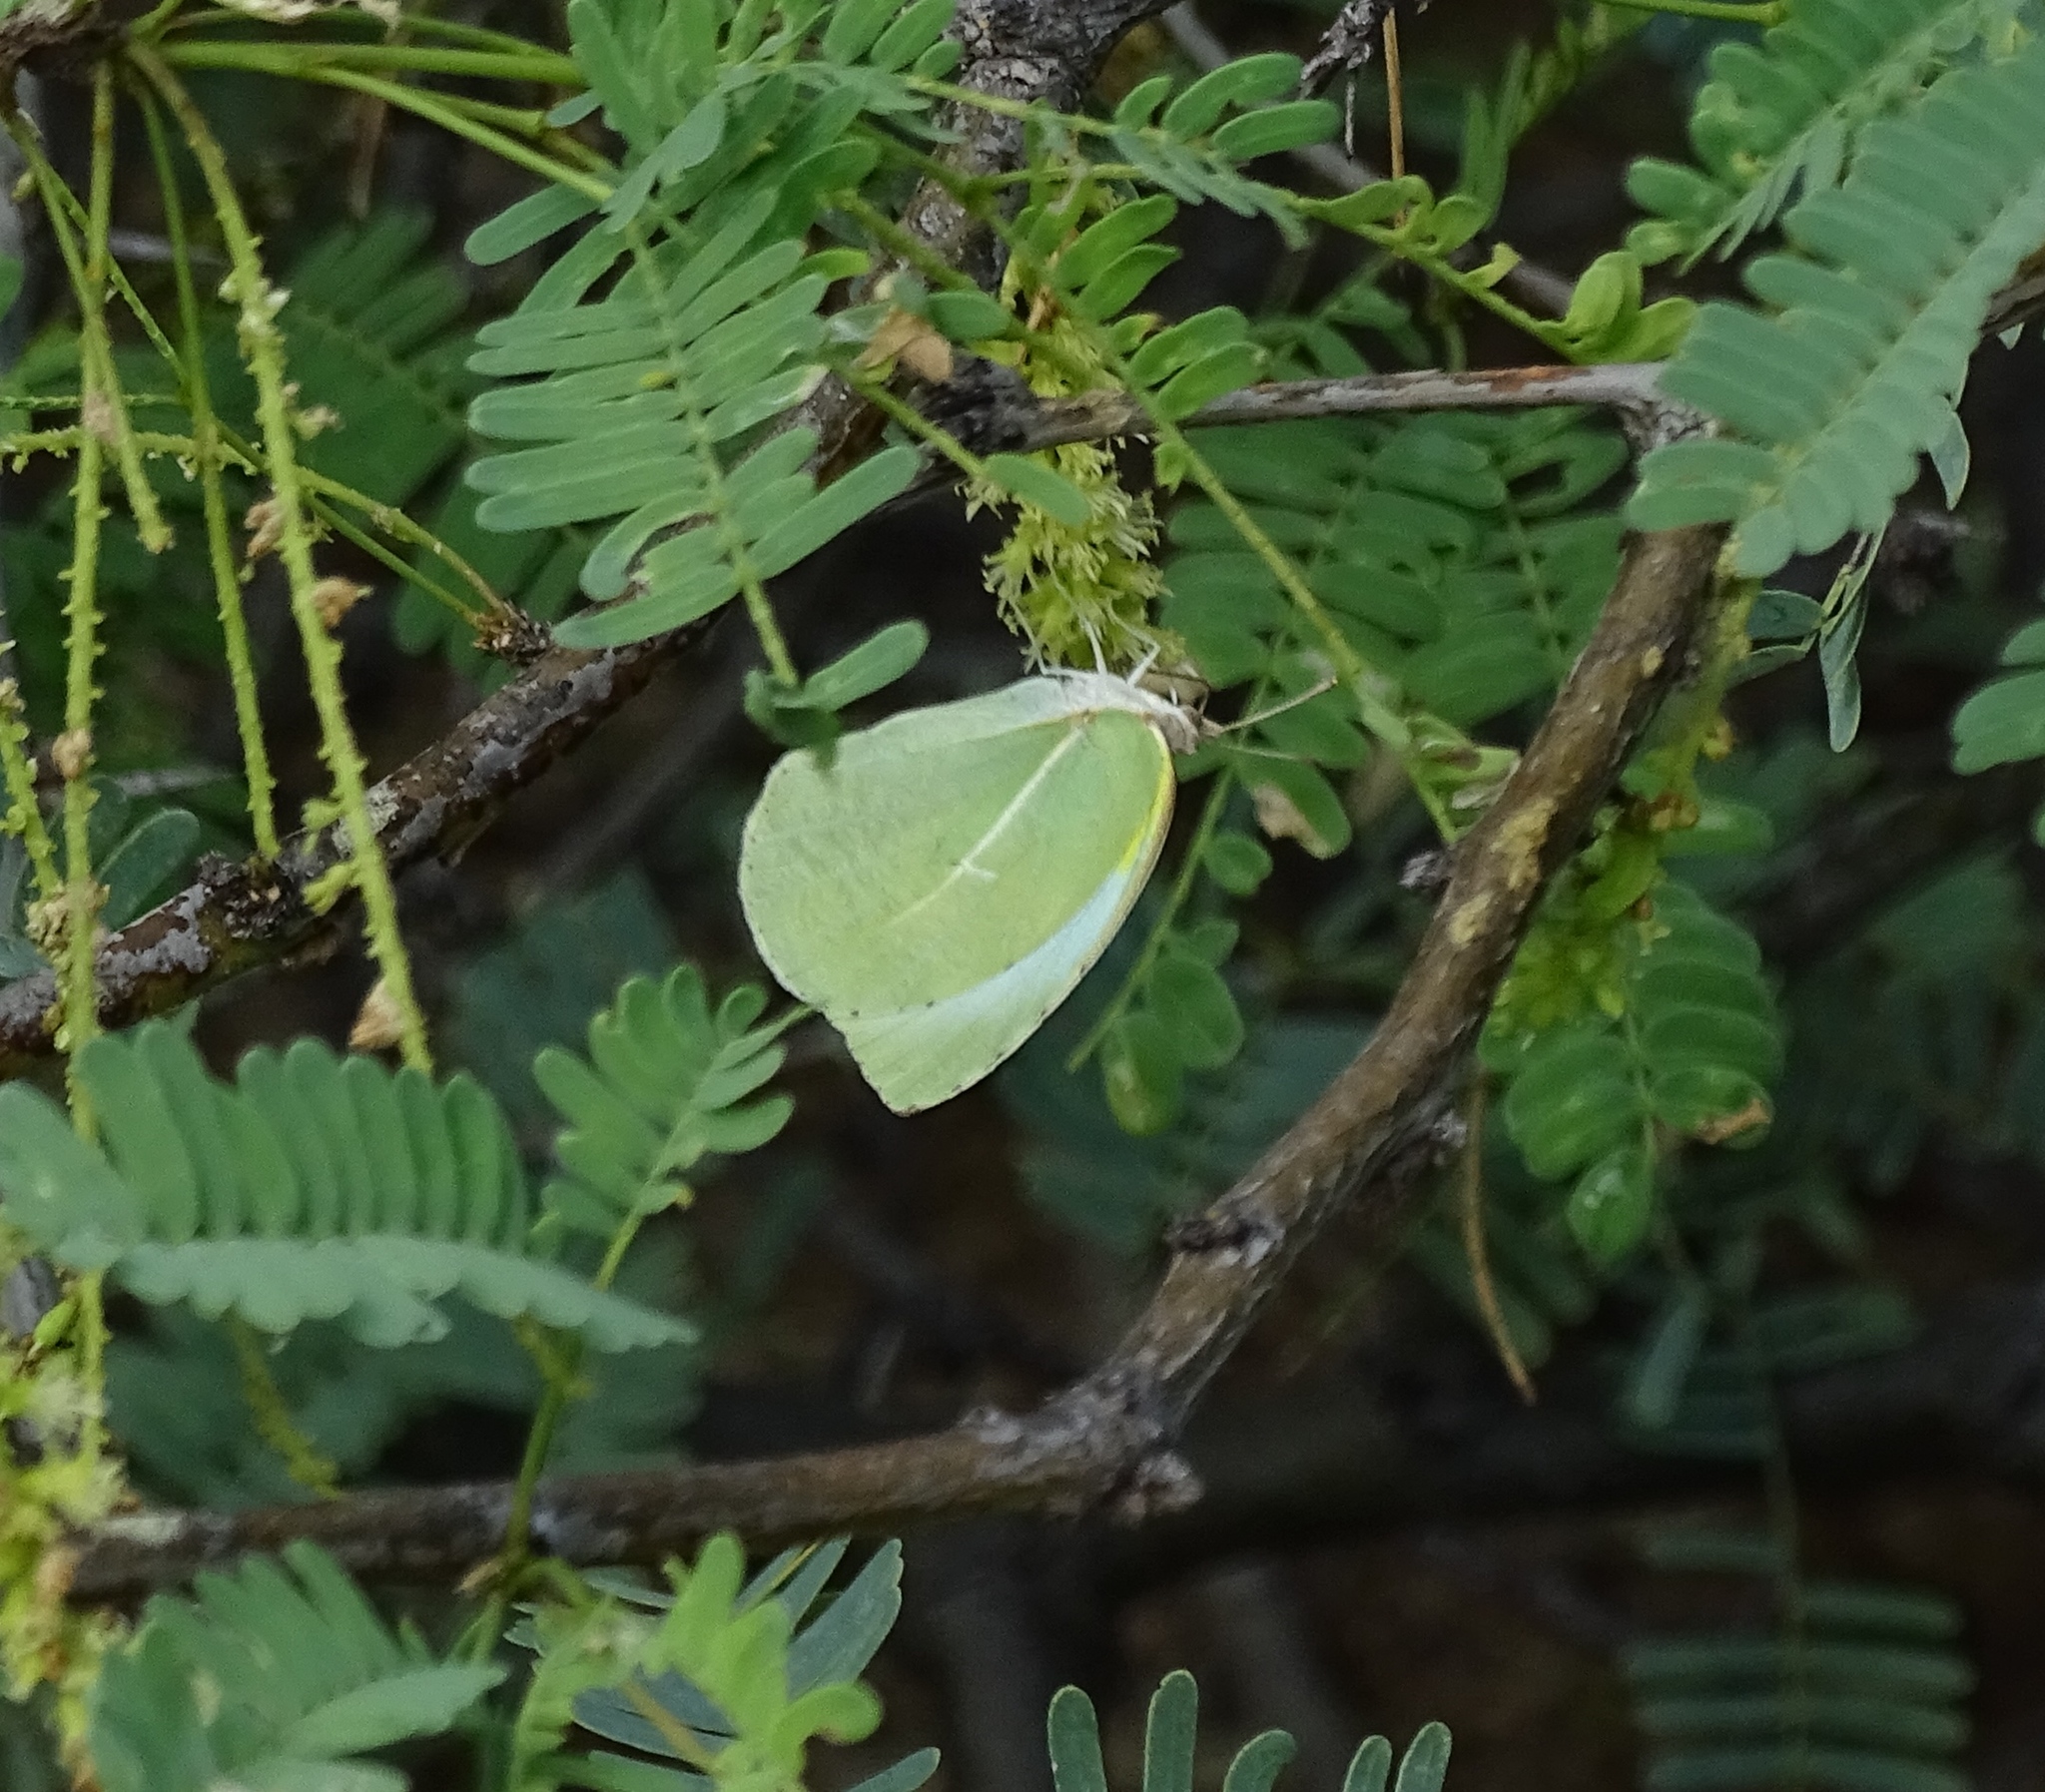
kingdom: Animalia
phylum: Arthropoda
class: Insecta
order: Lepidoptera
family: Pieridae
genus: Kricogonia
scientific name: Kricogonia lyside
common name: Guayacan sulphur,
